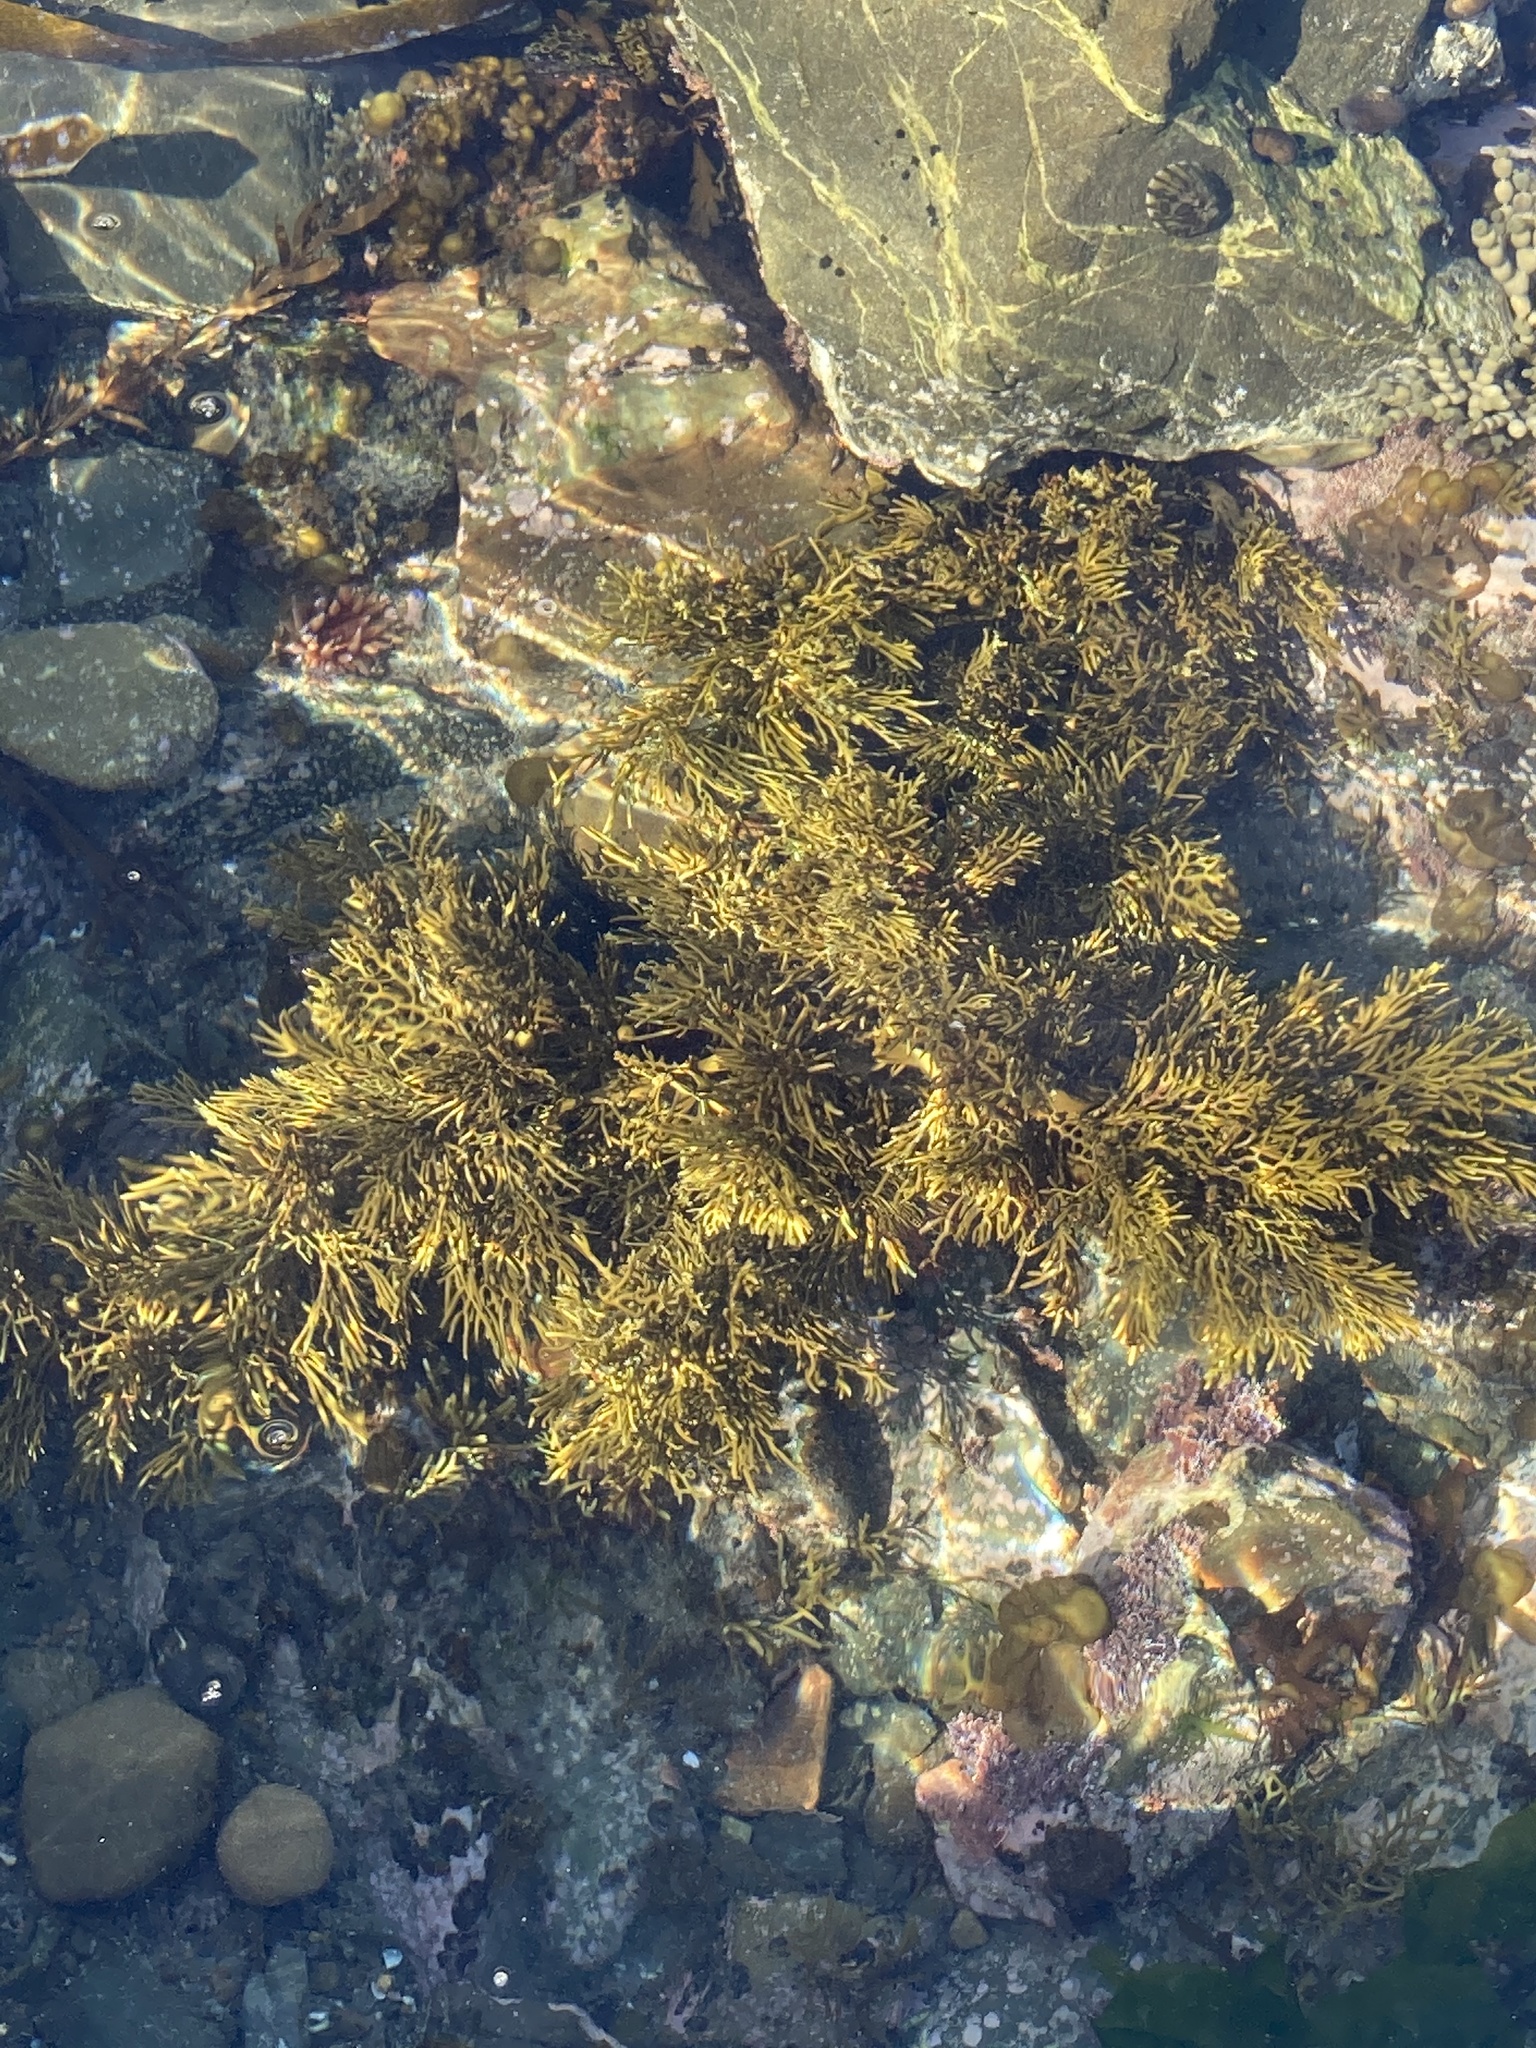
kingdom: Chromista
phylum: Ochrophyta
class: Phaeophyceae
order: Fucales
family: Sargassaceae
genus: Cystophora
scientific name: Cystophora scalaris
